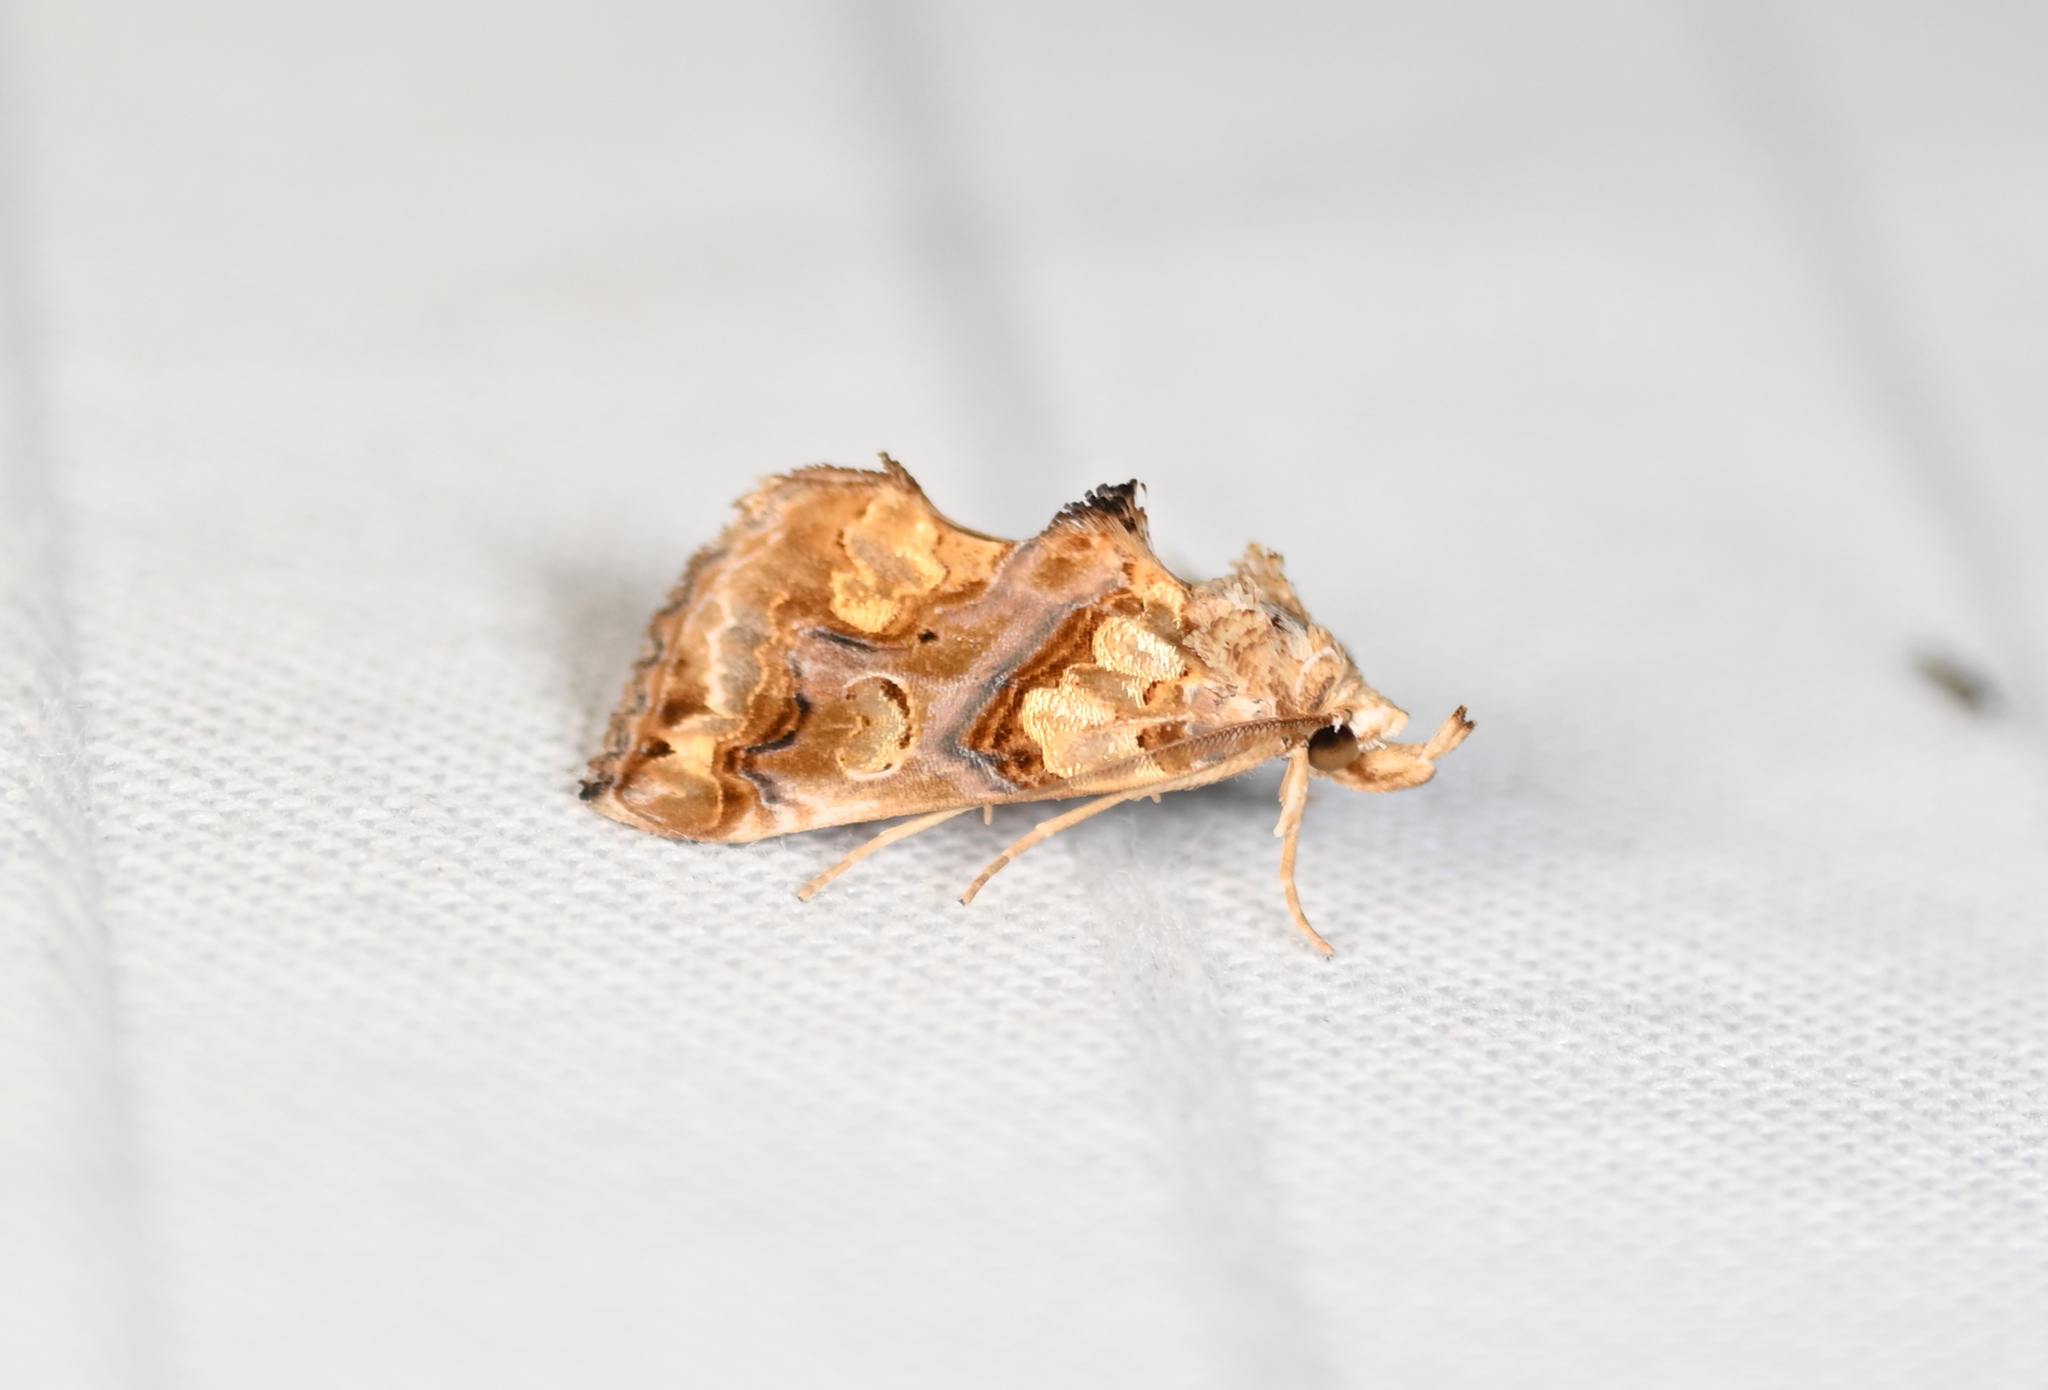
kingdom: Animalia
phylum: Arthropoda
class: Insecta
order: Lepidoptera
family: Erebidae
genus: Plusiodonta
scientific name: Plusiodonta compressipalpis
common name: Moonseed moth
